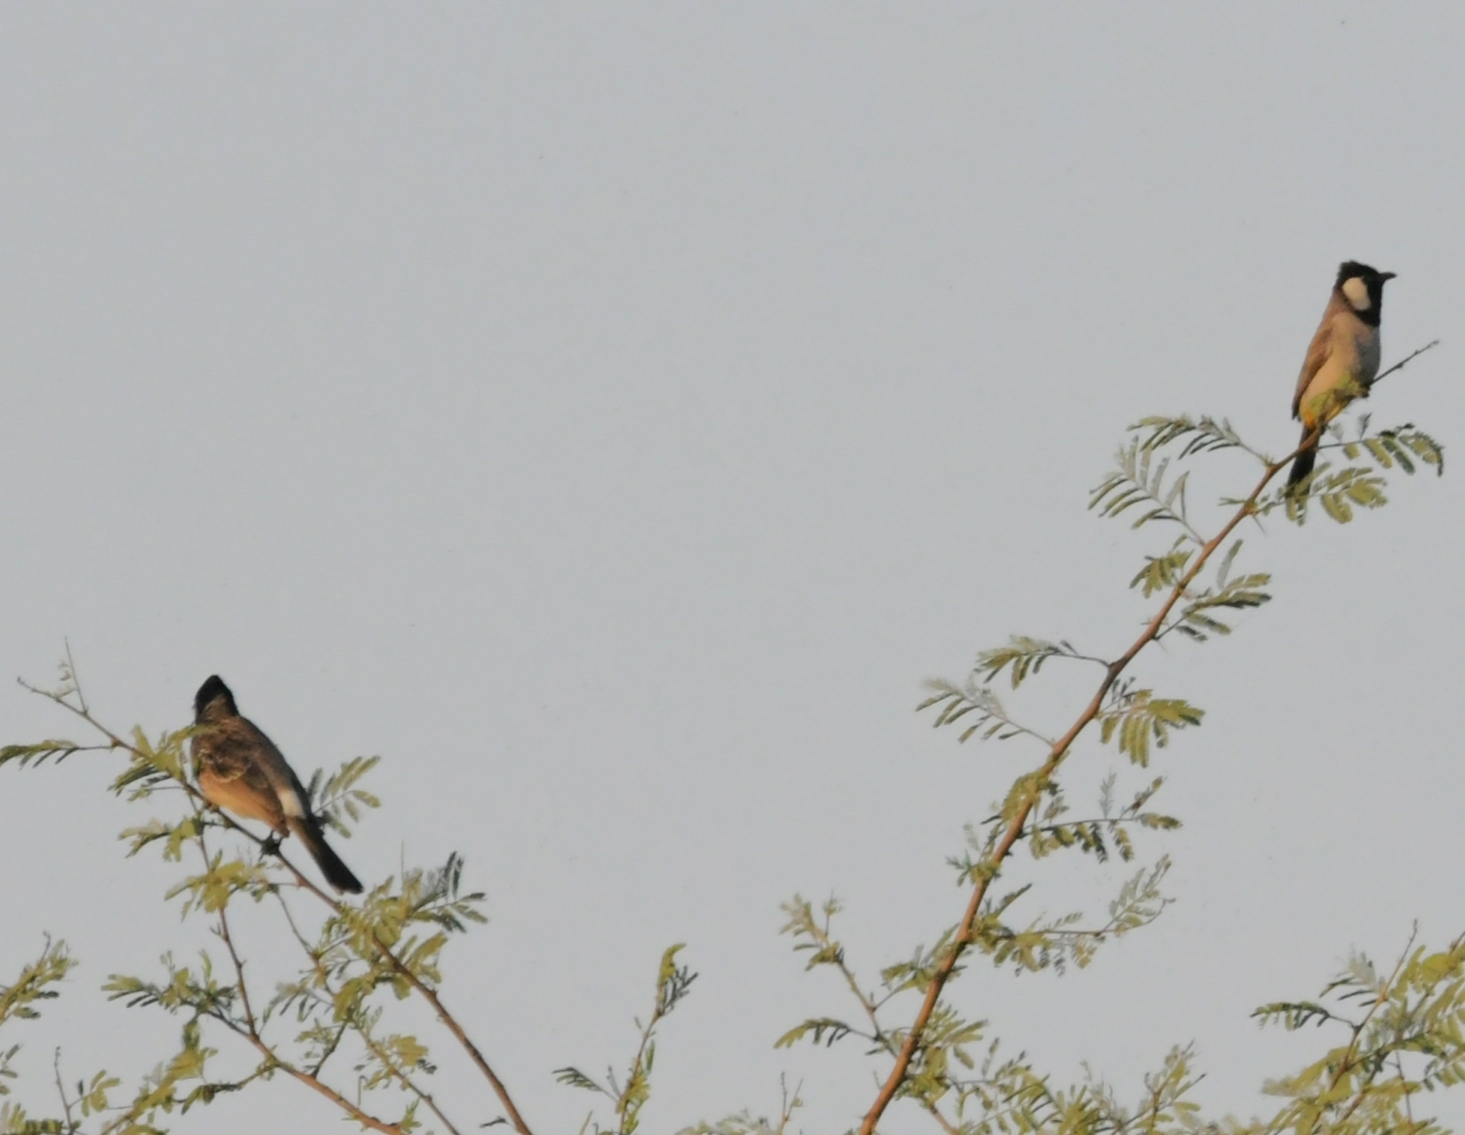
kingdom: Animalia
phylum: Chordata
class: Aves
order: Passeriformes
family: Pycnonotidae
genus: Pycnonotus
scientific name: Pycnonotus leucotis
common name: White-eared bulbul
